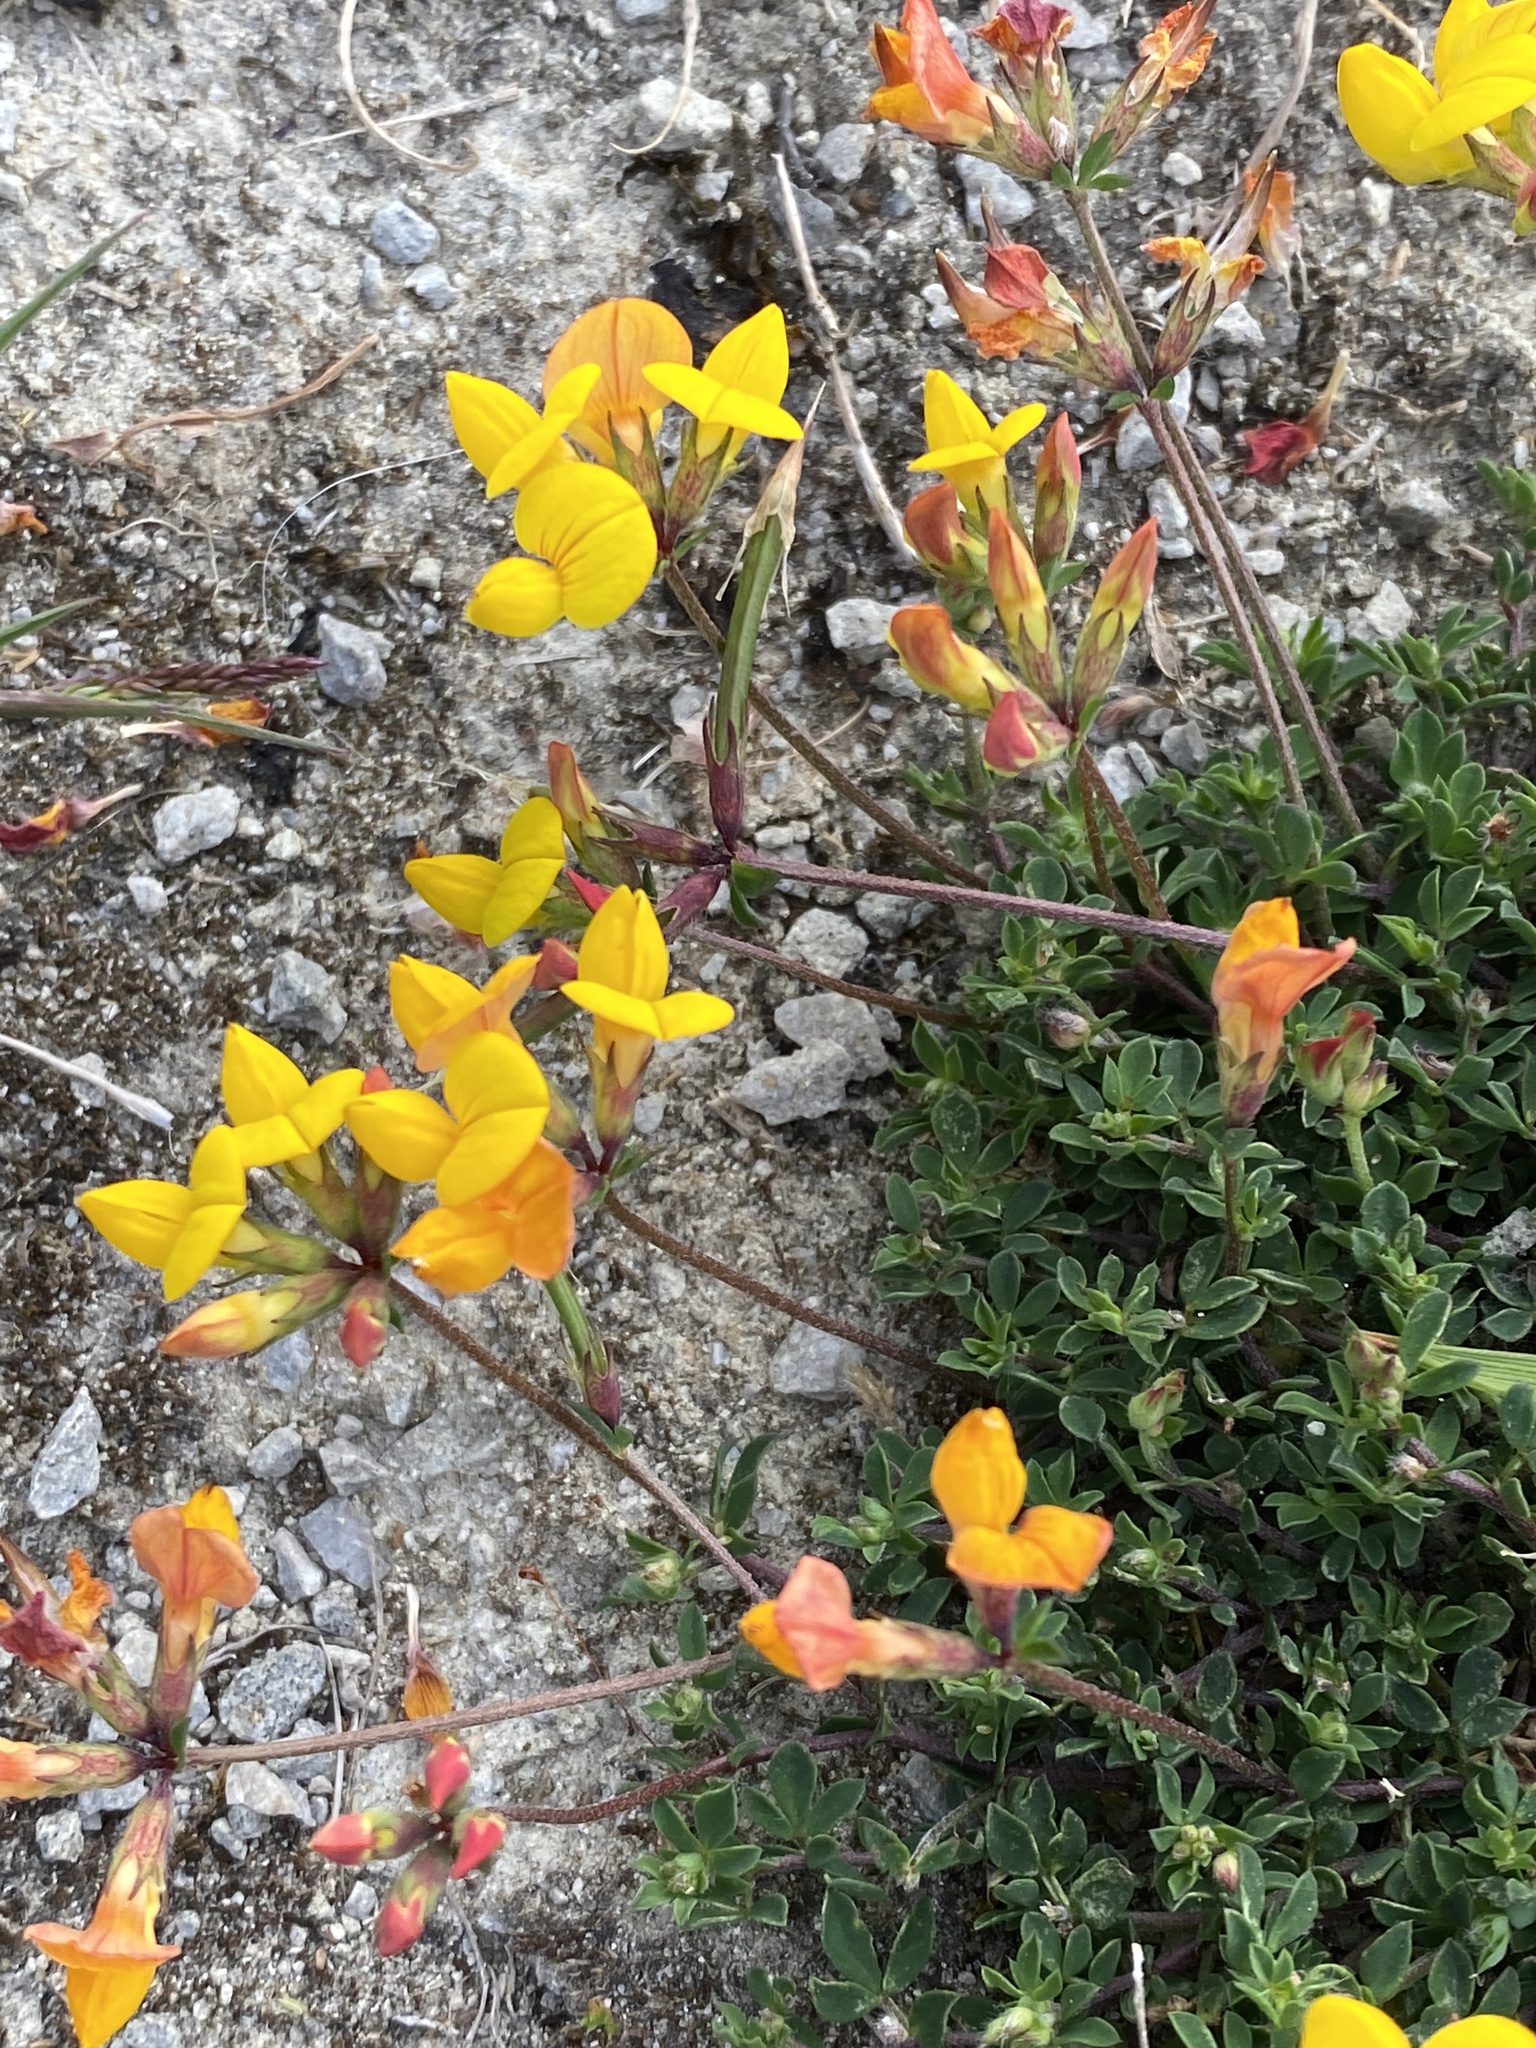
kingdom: Plantae
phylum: Tracheophyta
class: Magnoliopsida
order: Fabales
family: Fabaceae
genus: Lotus
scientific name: Lotus corniculatus
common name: Common bird's-foot-trefoil
